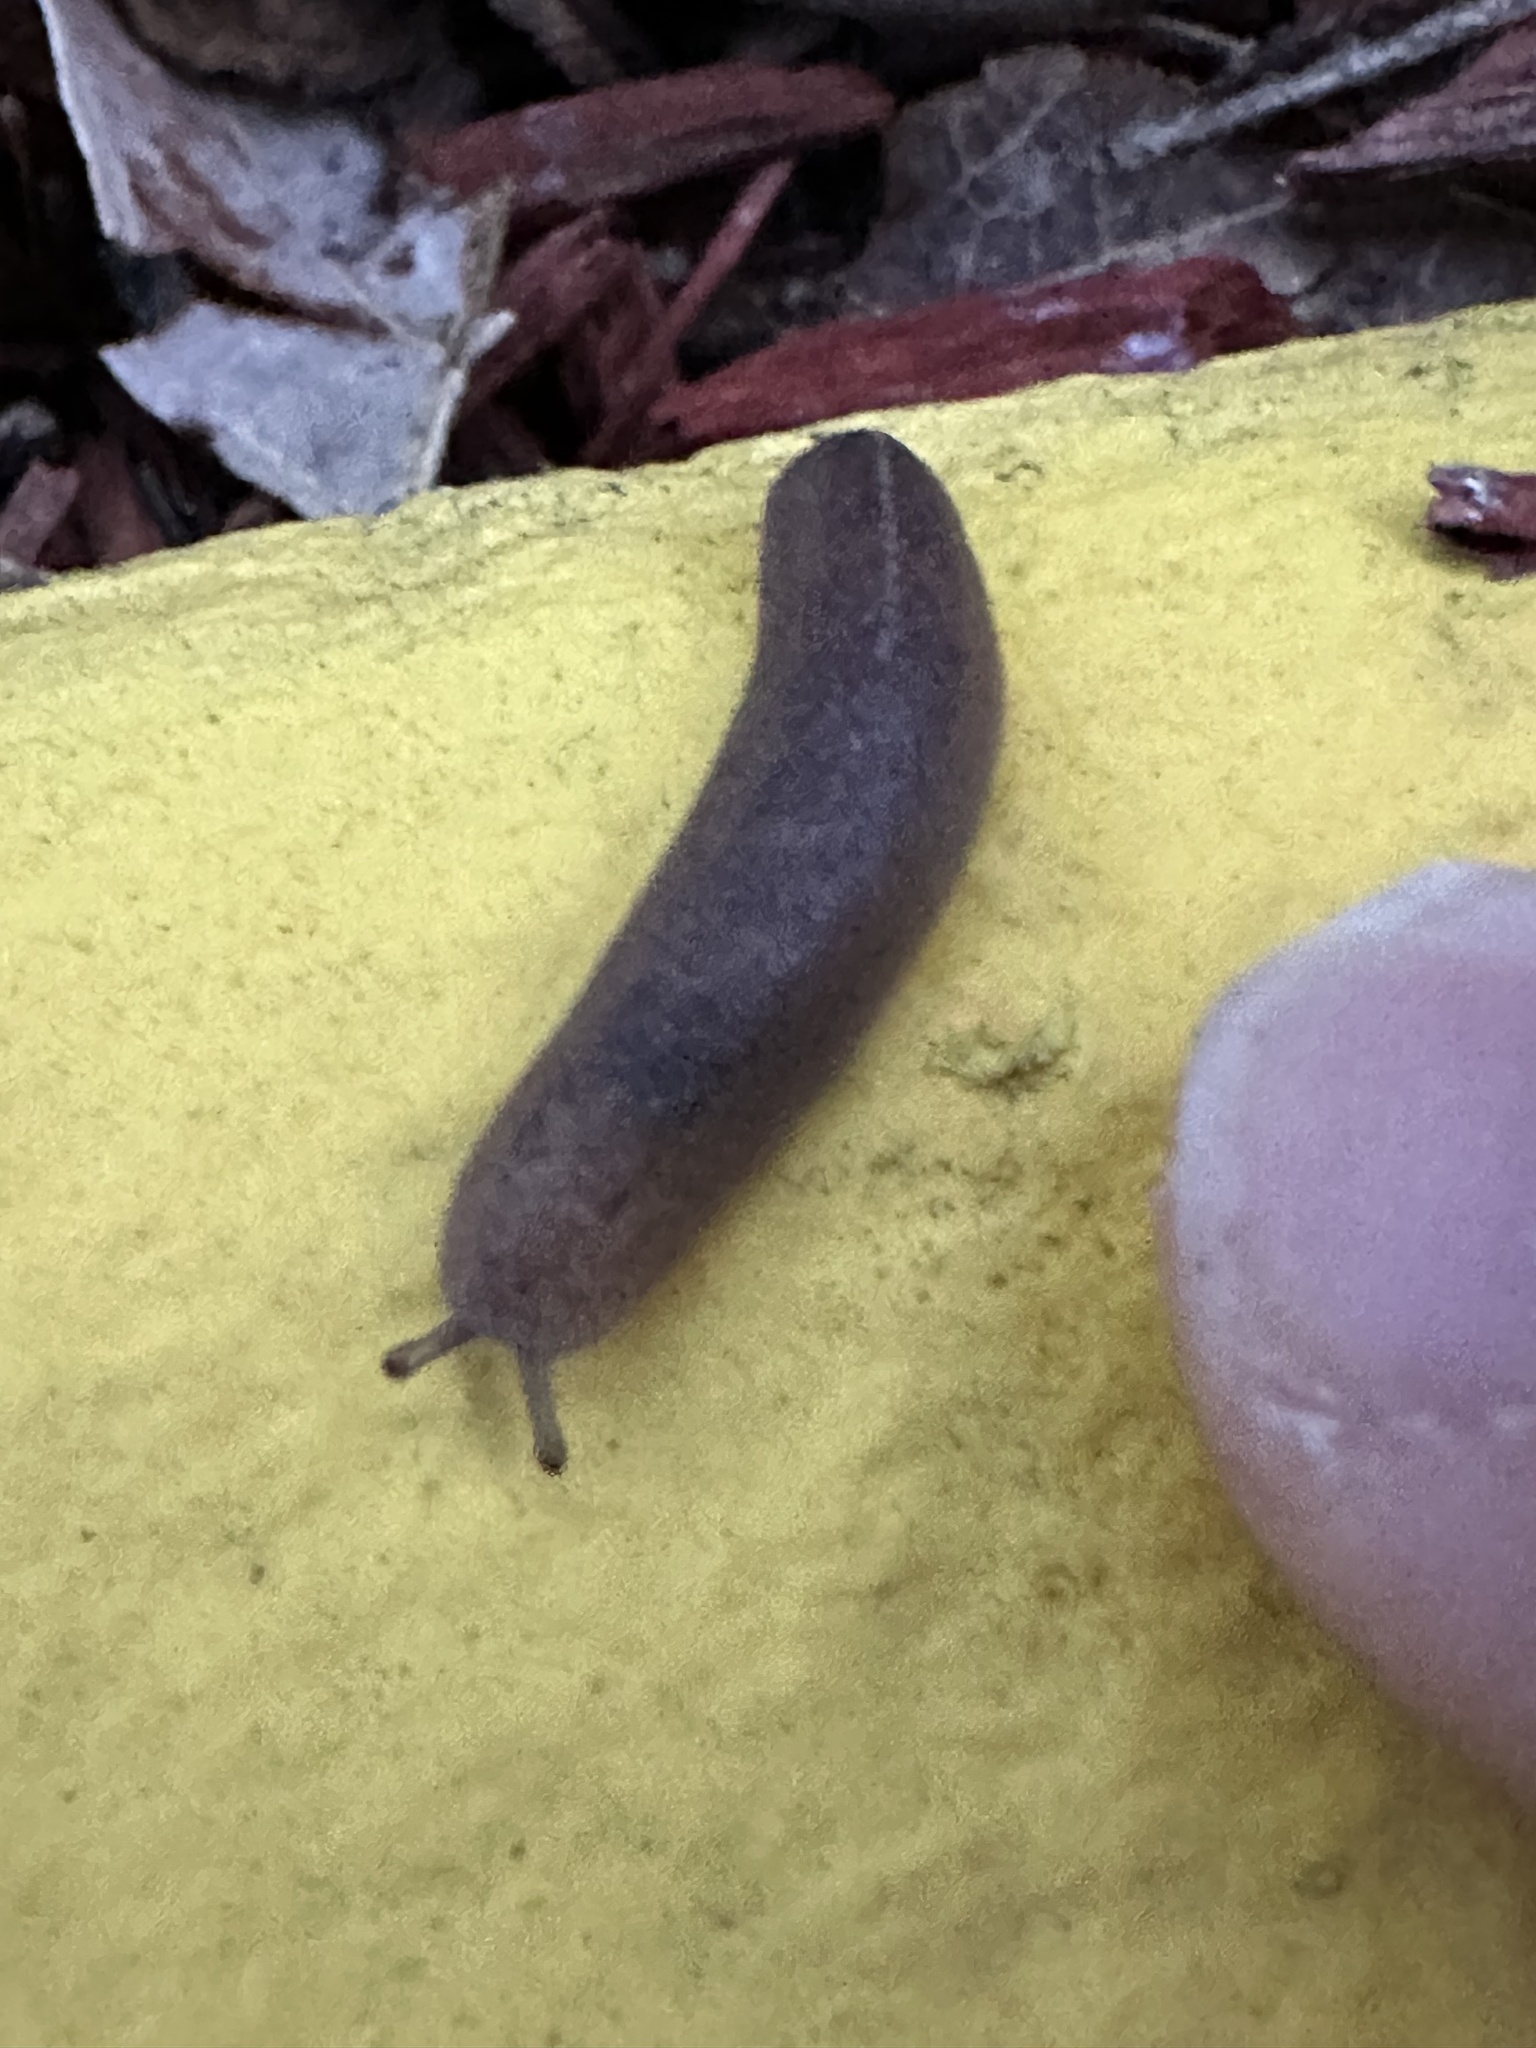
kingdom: Animalia
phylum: Mollusca
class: Gastropoda
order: Systellommatophora
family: Veronicellidae
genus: Leidyula
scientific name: Leidyula floridana
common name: Florida leatherleaf
